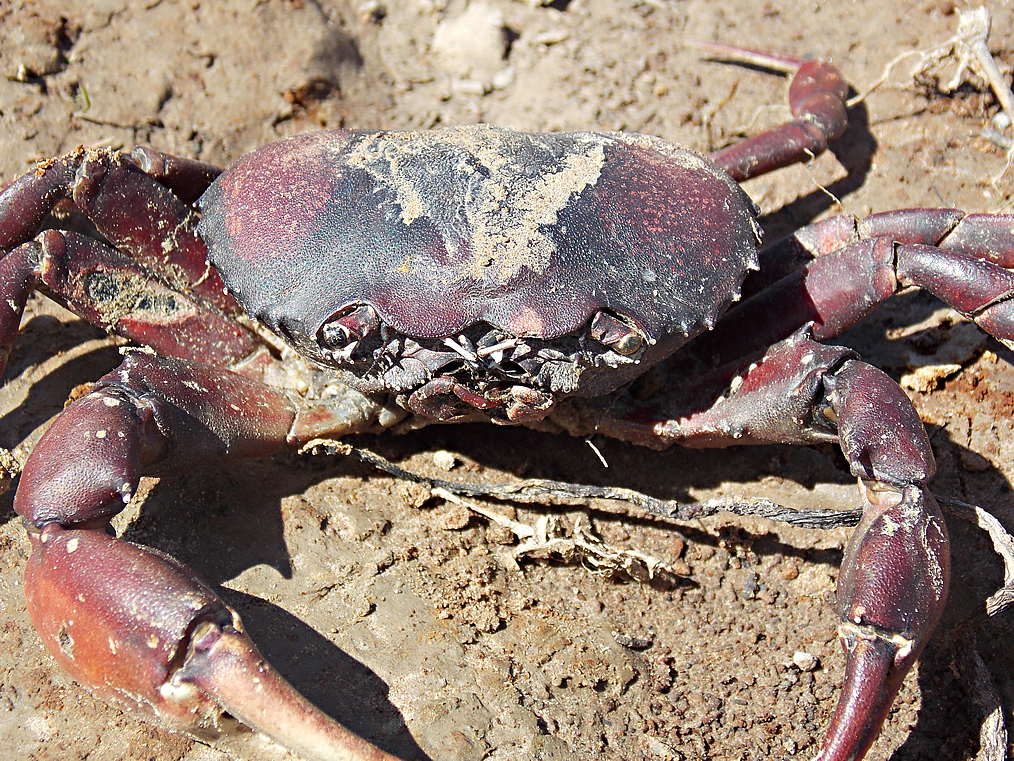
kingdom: Animalia
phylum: Arthropoda
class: Malacostraca
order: Decapoda
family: Trichodactylidae
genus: Dilocarcinus
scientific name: Dilocarcinus pagei
